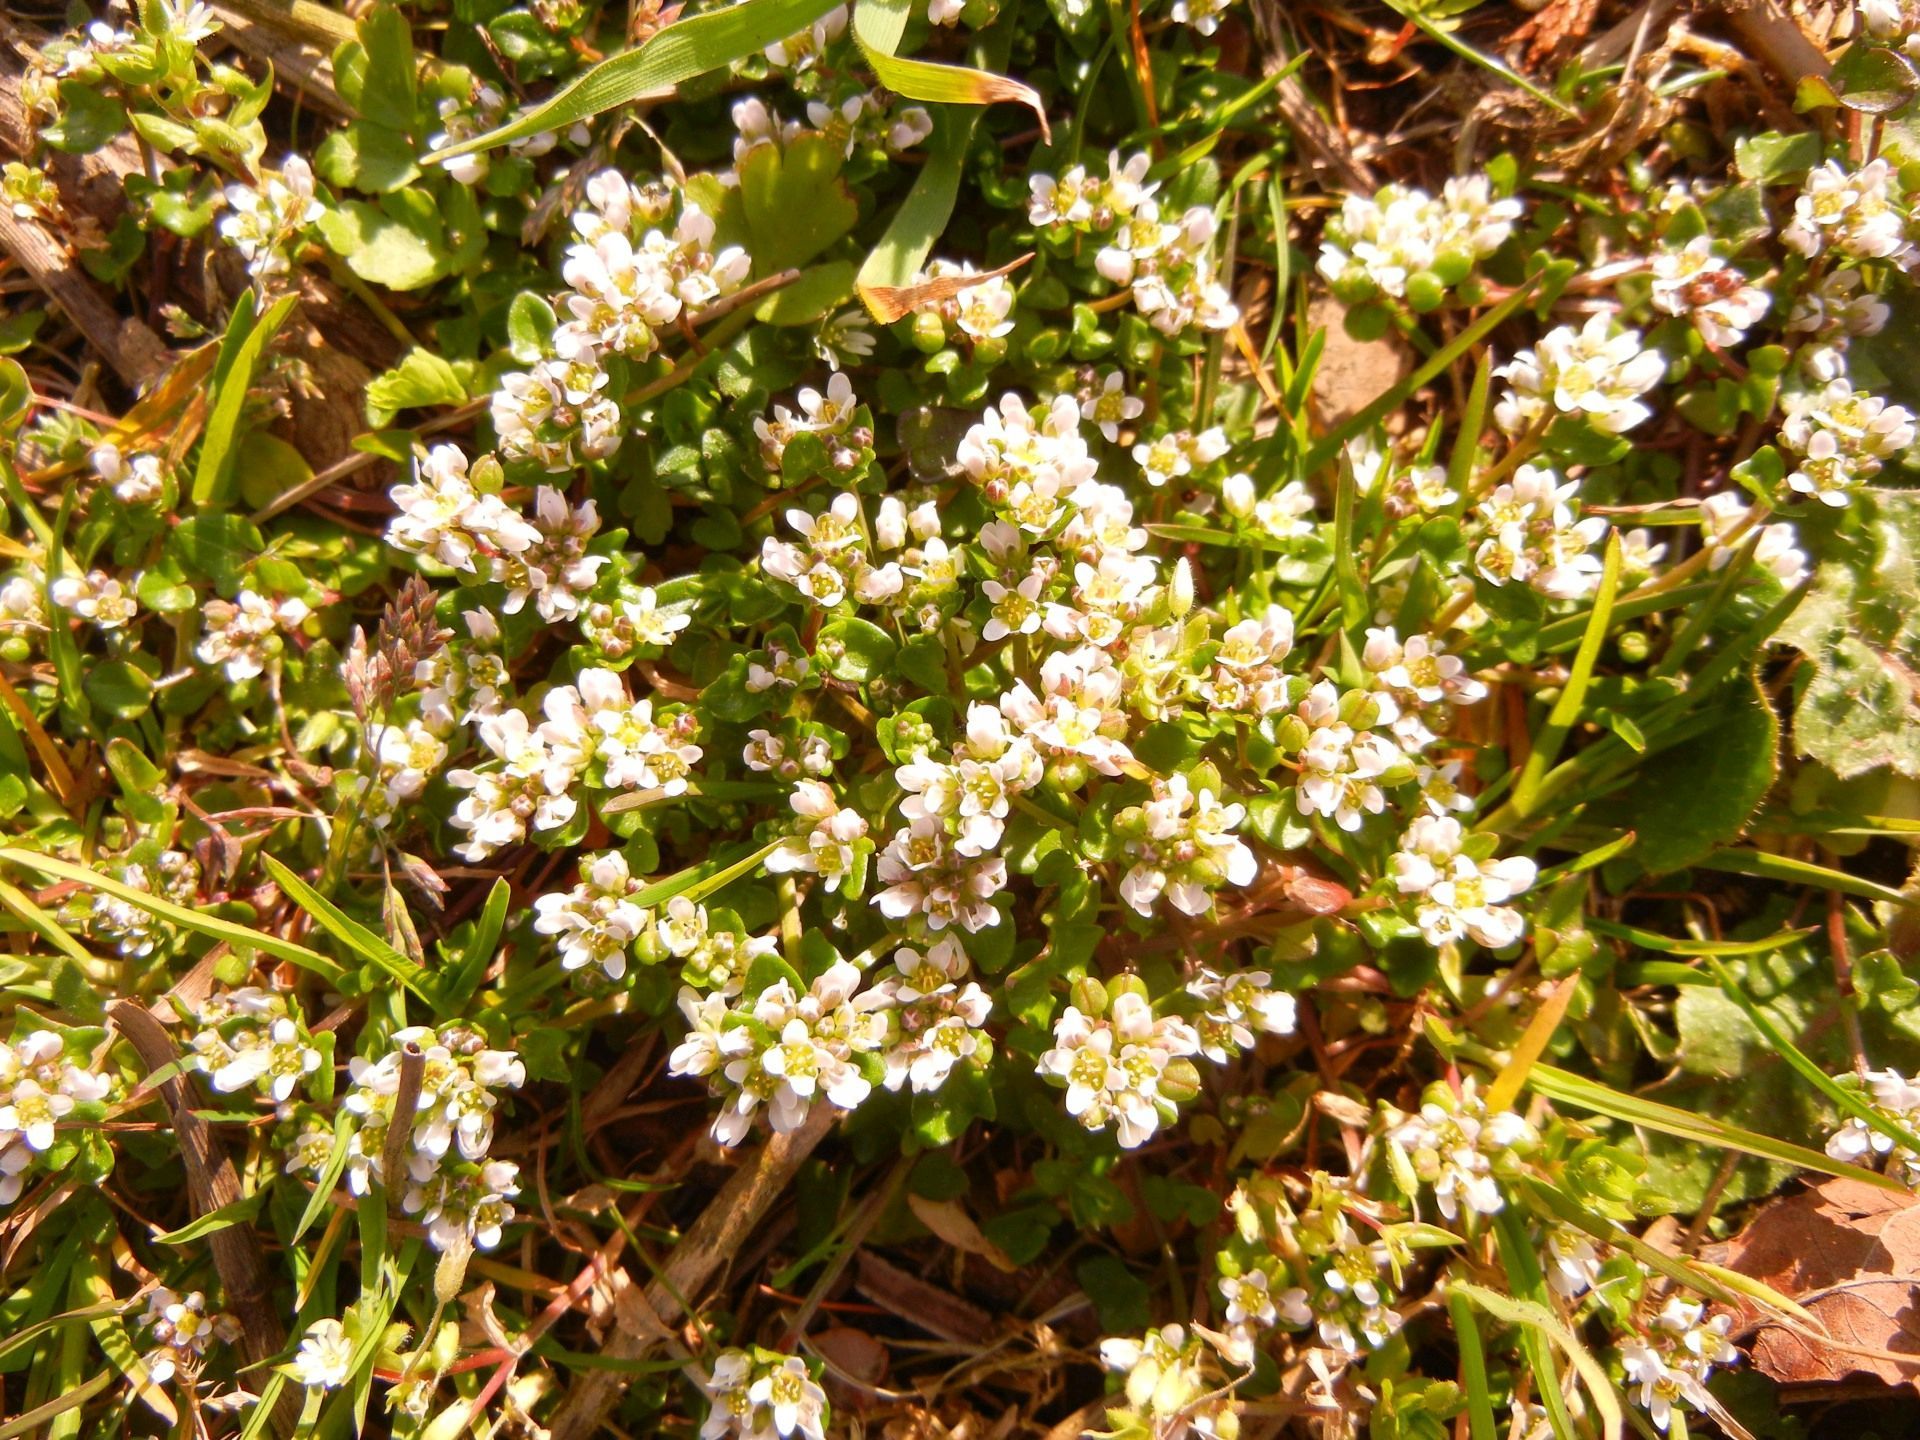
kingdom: Plantae
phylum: Tracheophyta
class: Magnoliopsida
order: Brassicales
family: Brassicaceae
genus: Cochlearia
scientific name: Cochlearia danica
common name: Early scurvygrass
